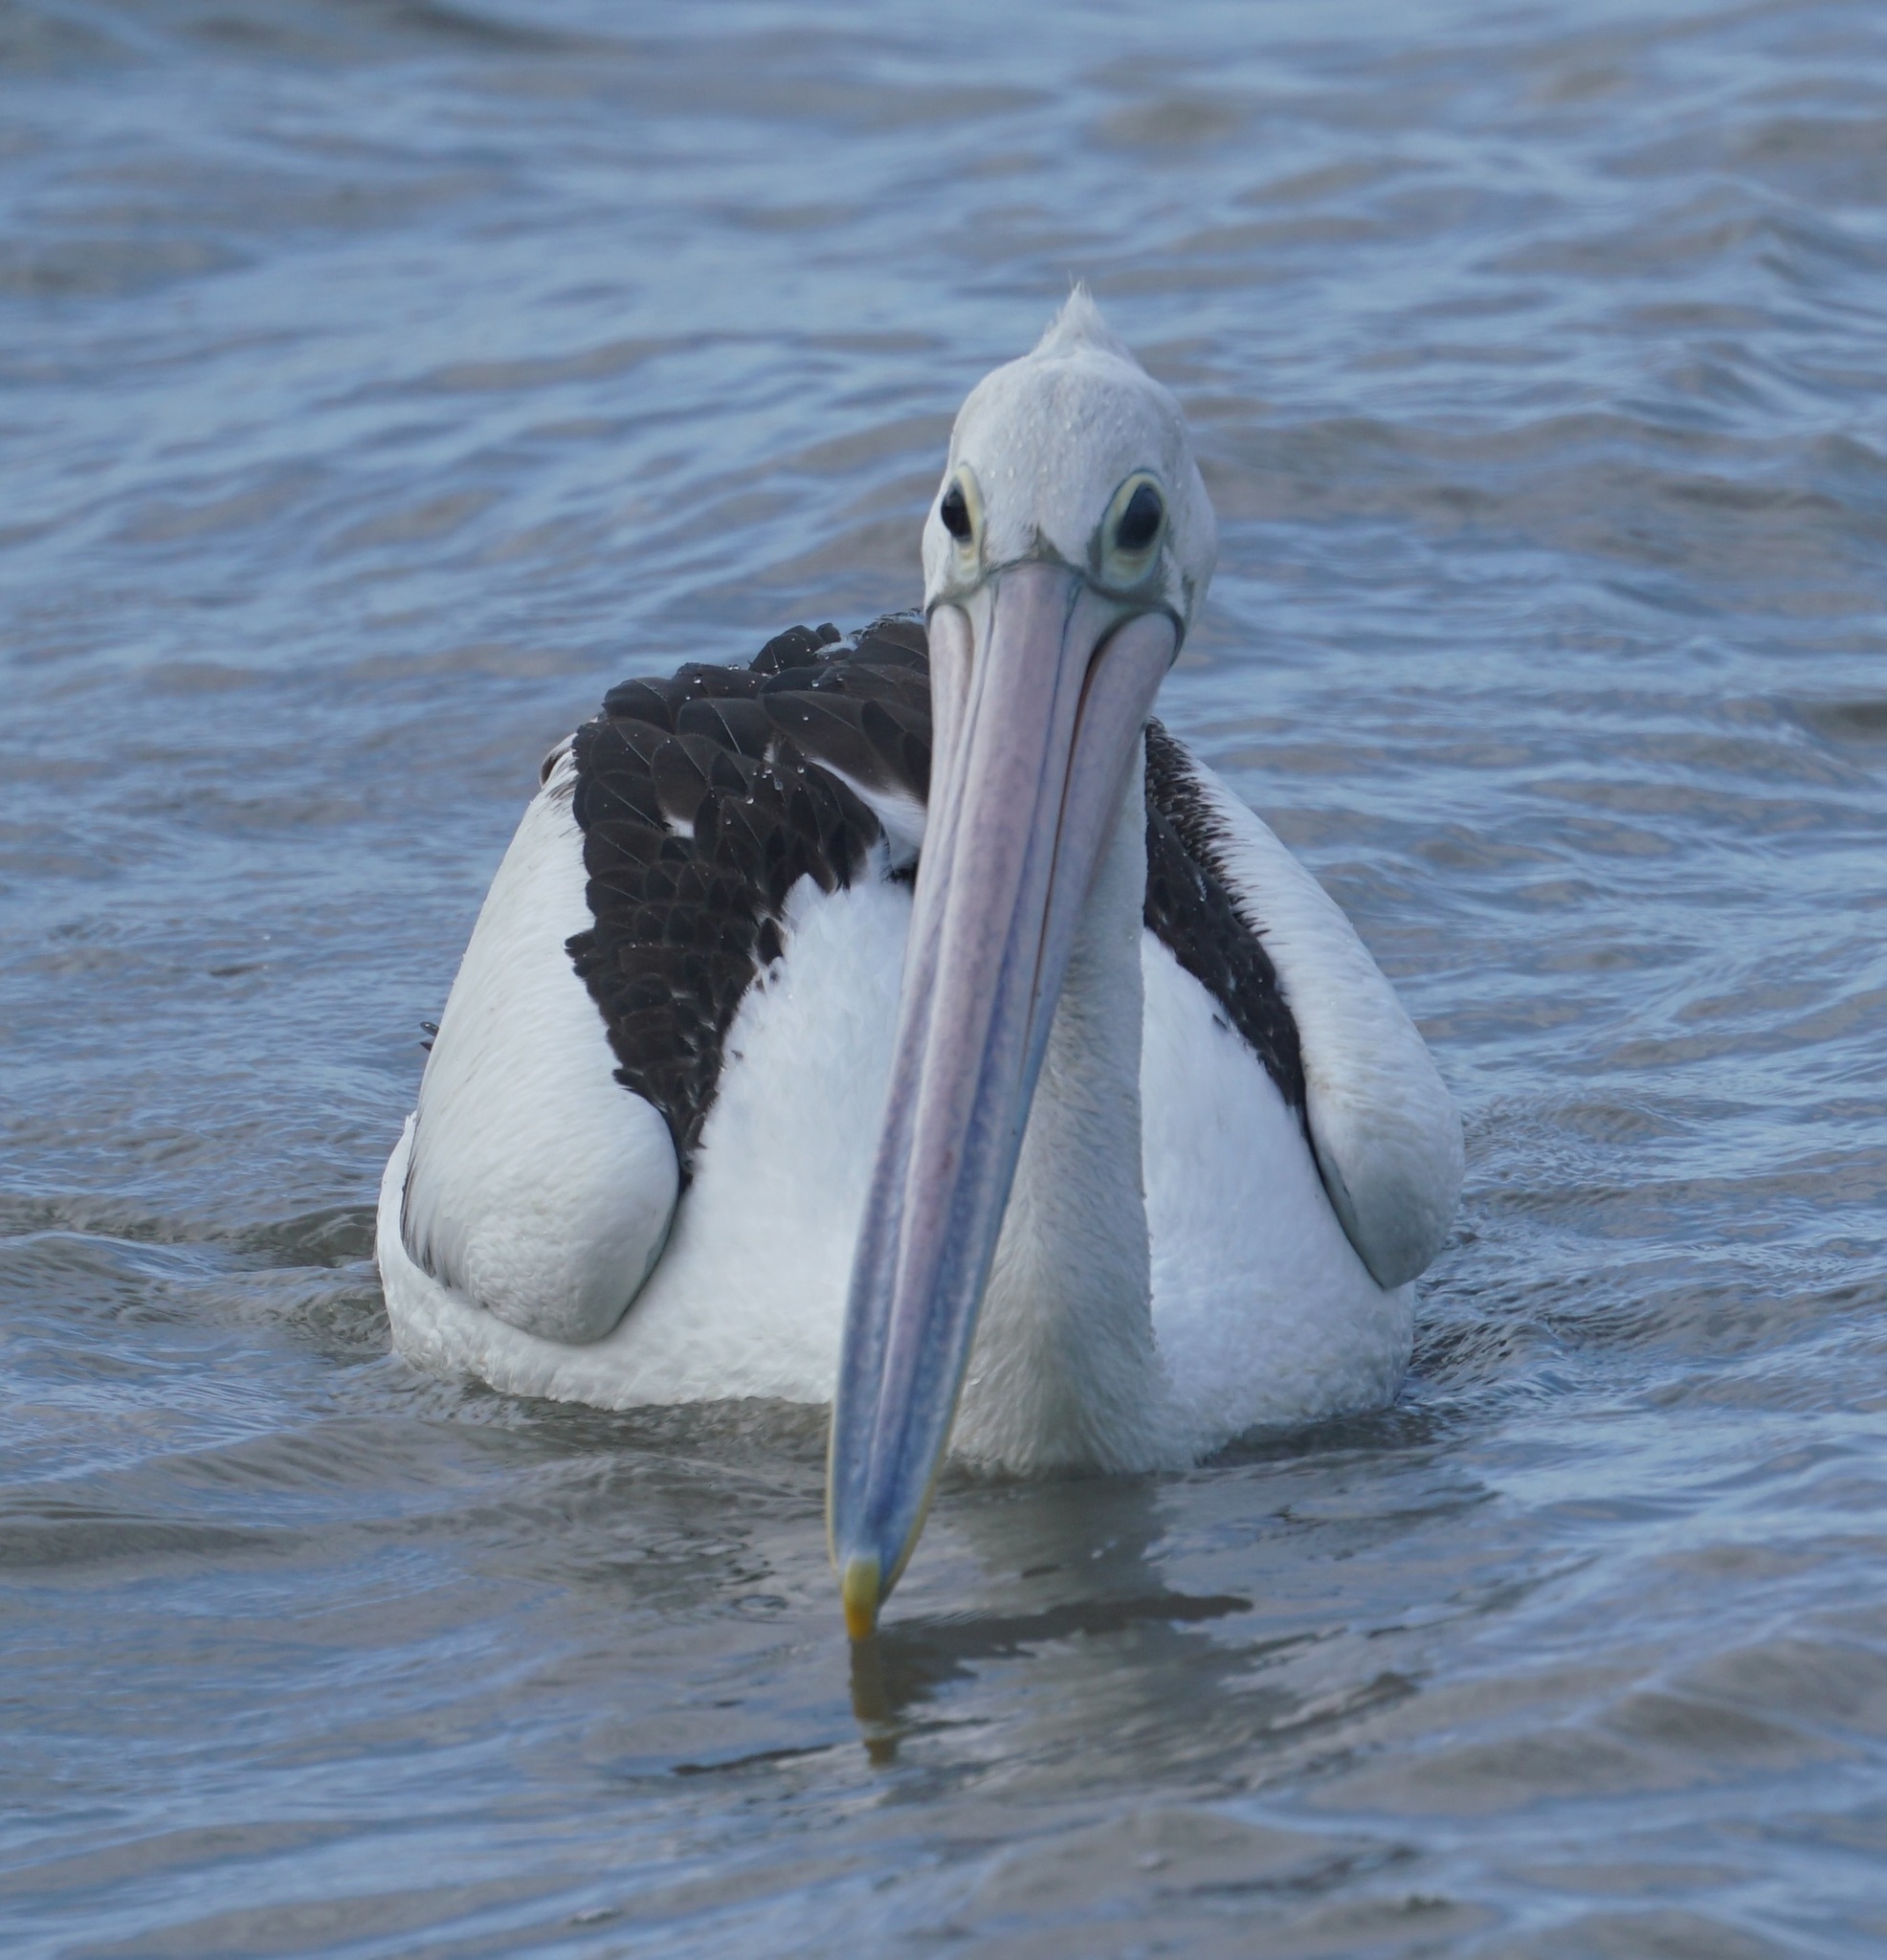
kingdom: Animalia
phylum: Chordata
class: Aves
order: Pelecaniformes
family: Pelecanidae
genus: Pelecanus
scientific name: Pelecanus conspicillatus
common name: Australian pelican
